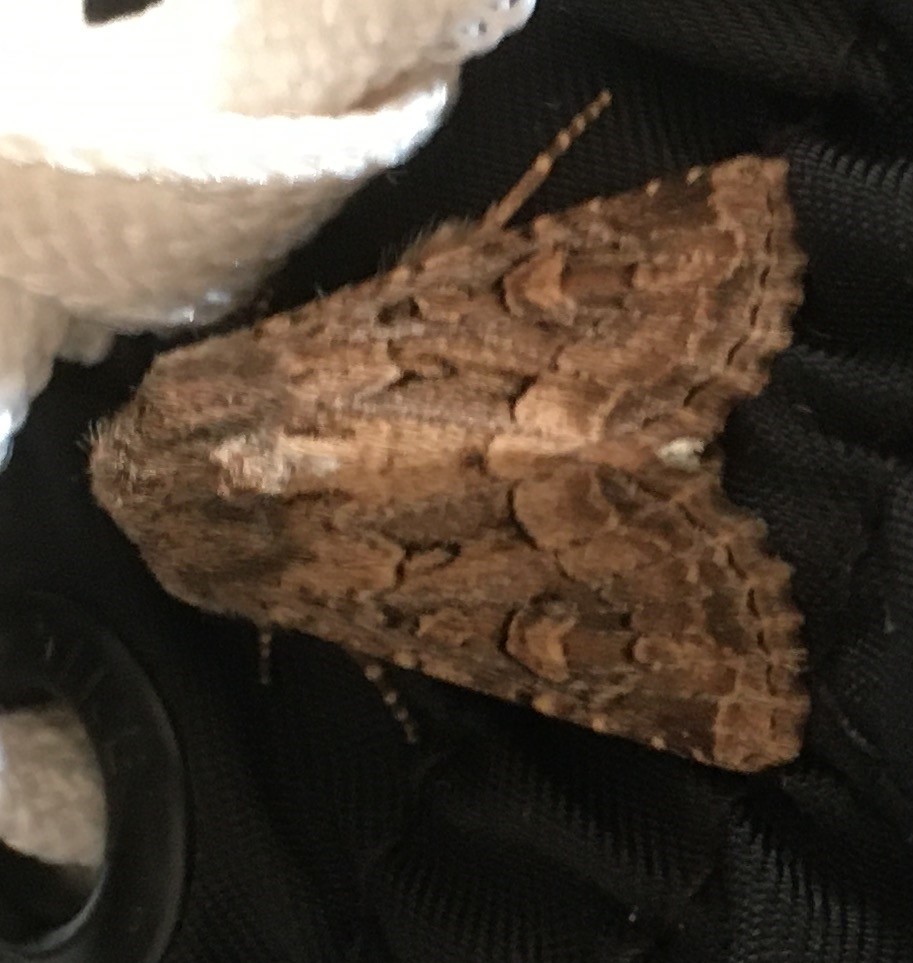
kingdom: Animalia
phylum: Arthropoda
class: Insecta
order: Lepidoptera
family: Noctuidae
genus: Luperina
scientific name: Luperina testacea
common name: Flounced rustic
